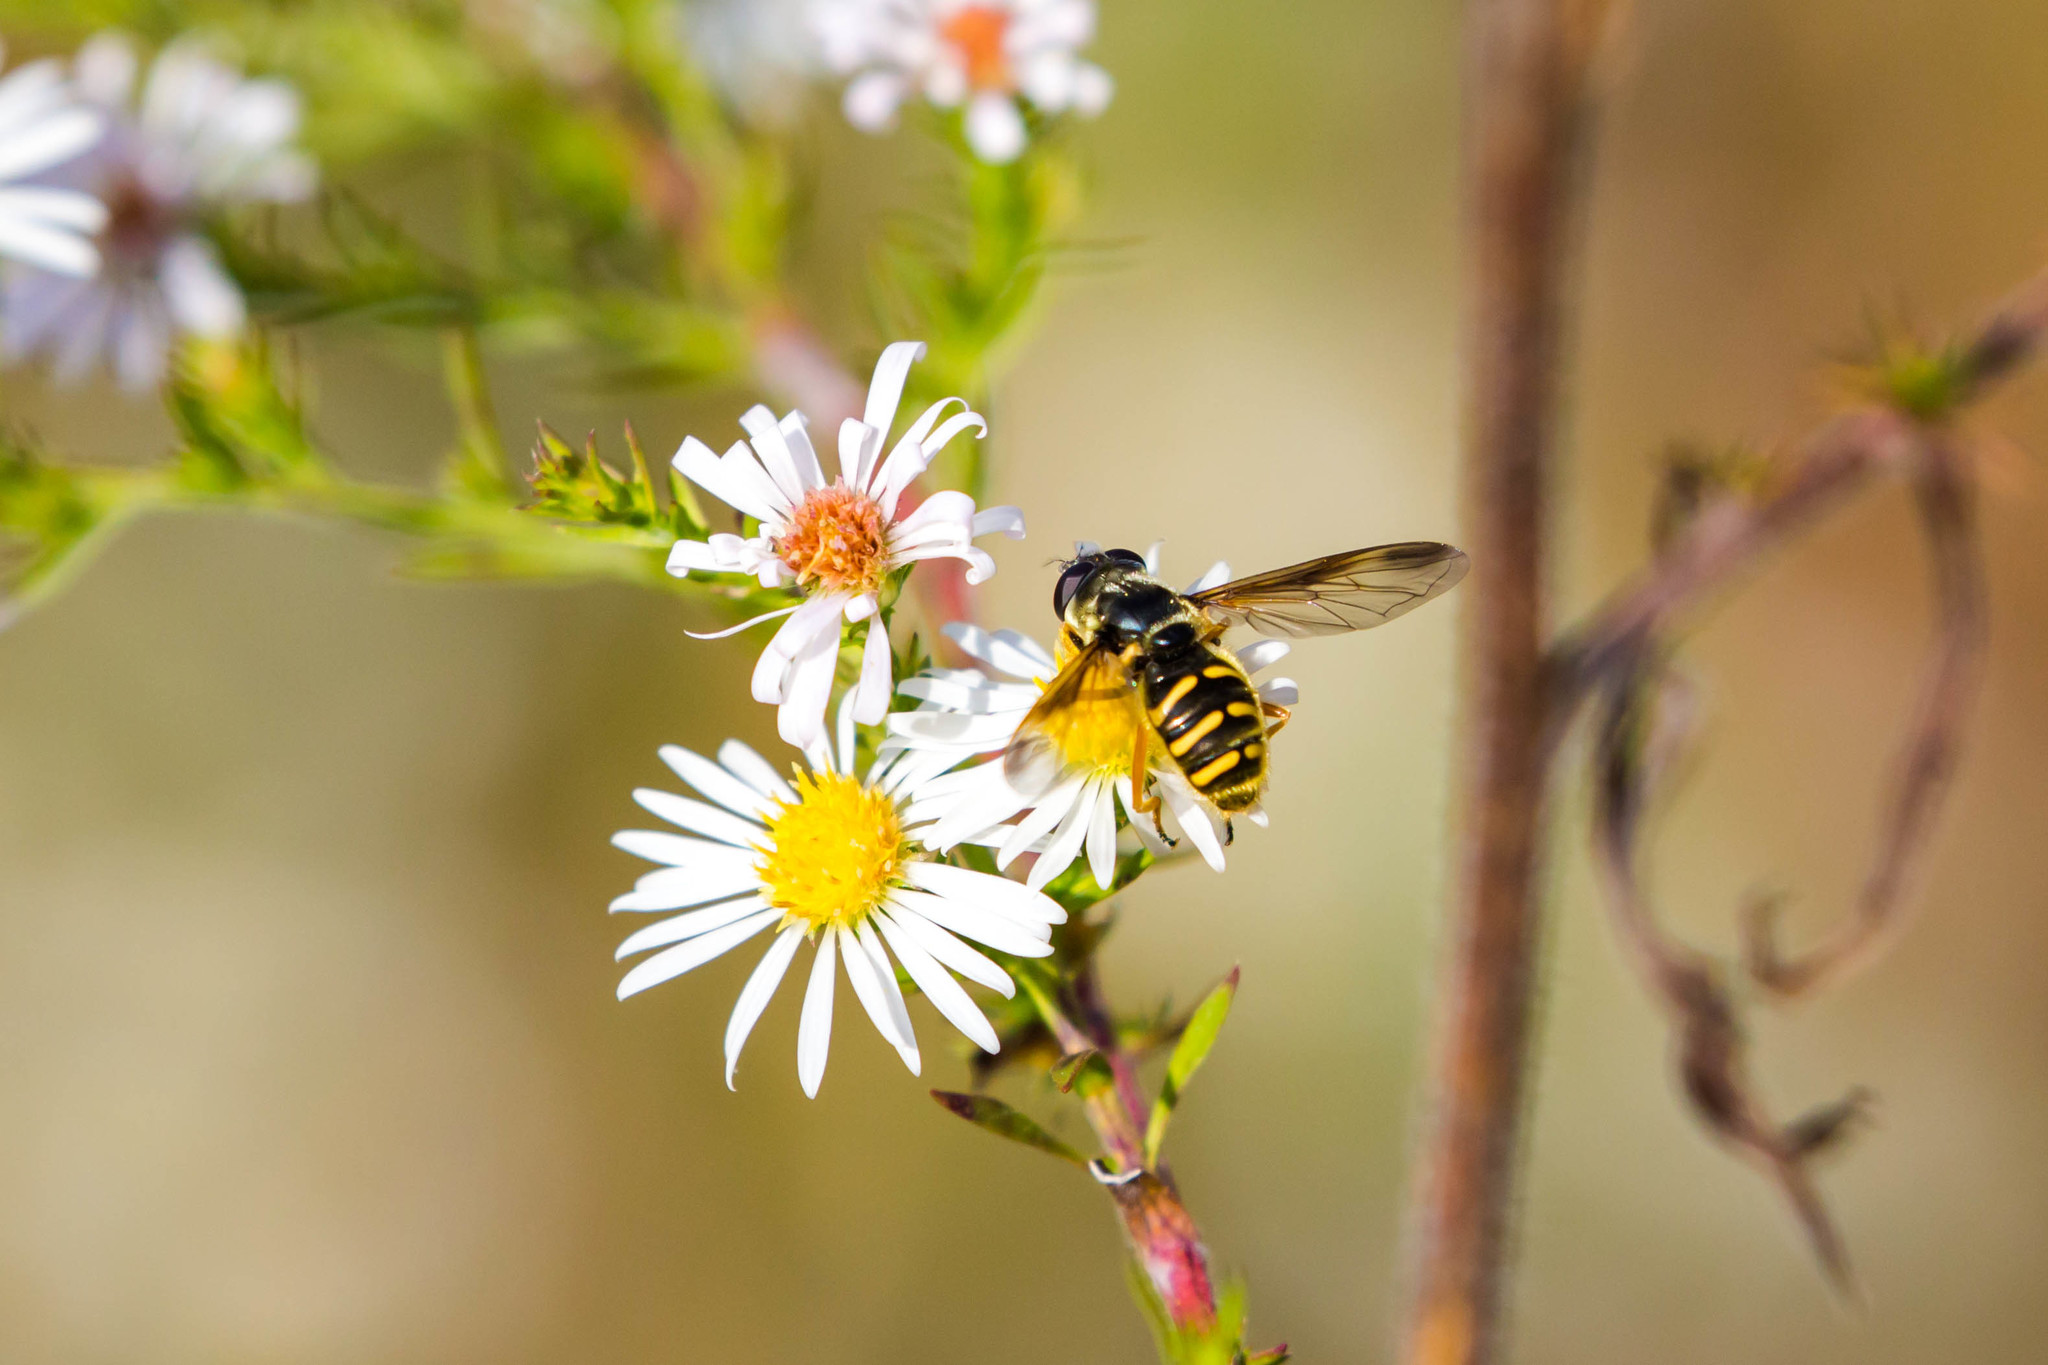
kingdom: Animalia
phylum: Arthropoda
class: Insecta
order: Diptera
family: Syrphidae
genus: Sericomyia
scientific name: Sericomyia chrysotoxoides
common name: Oblique-banded pond fly
